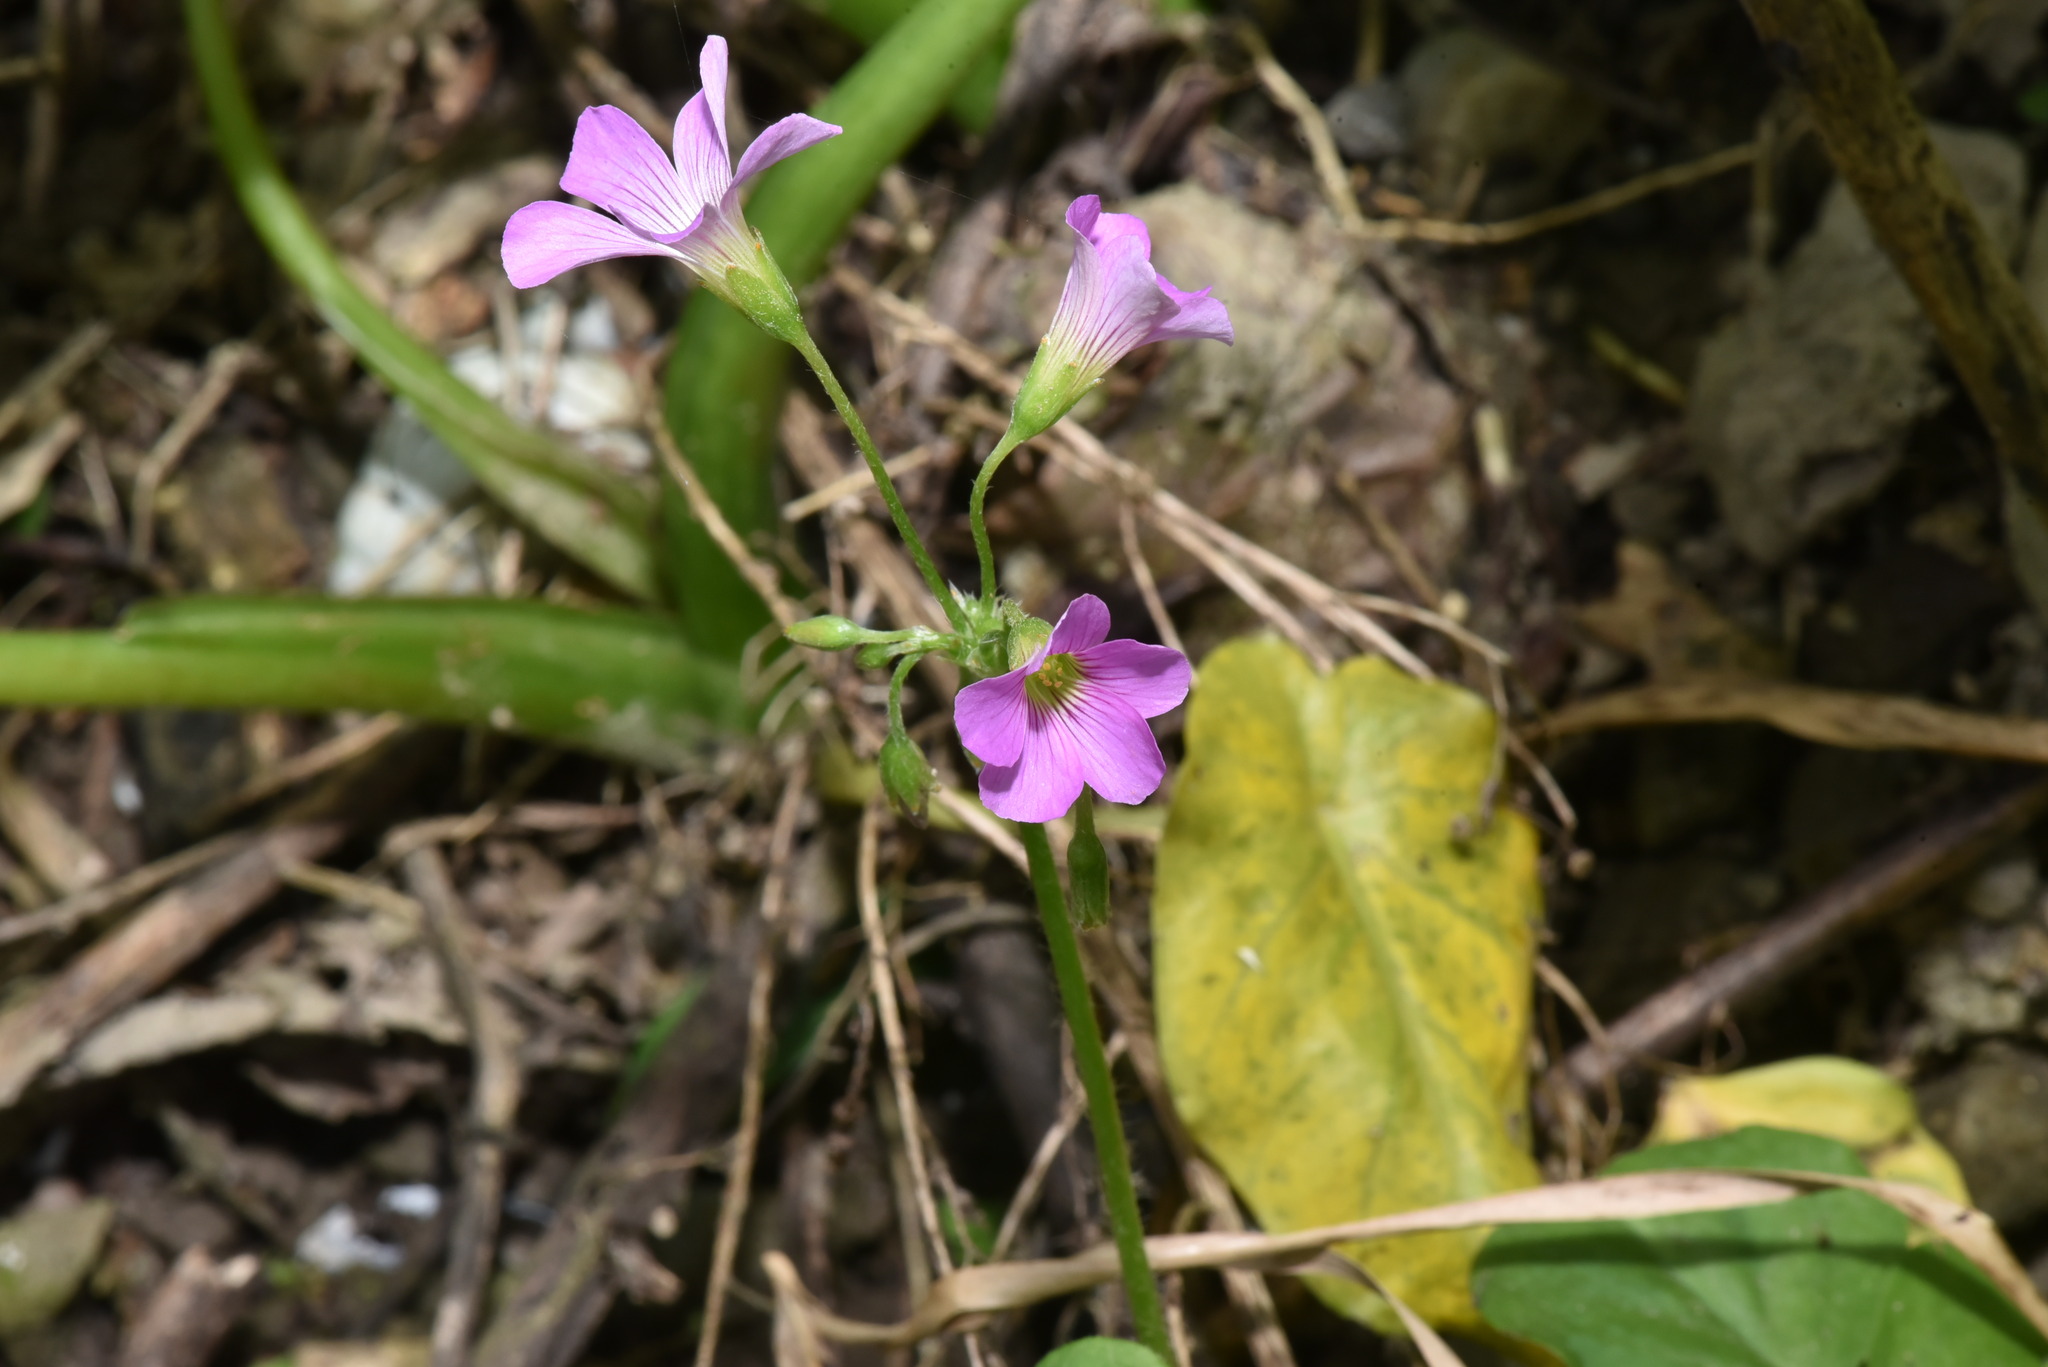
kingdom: Plantae
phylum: Tracheophyta
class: Magnoliopsida
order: Oxalidales
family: Oxalidaceae
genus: Oxalis
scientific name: Oxalis debilis
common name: Large-flowered pink-sorrel
